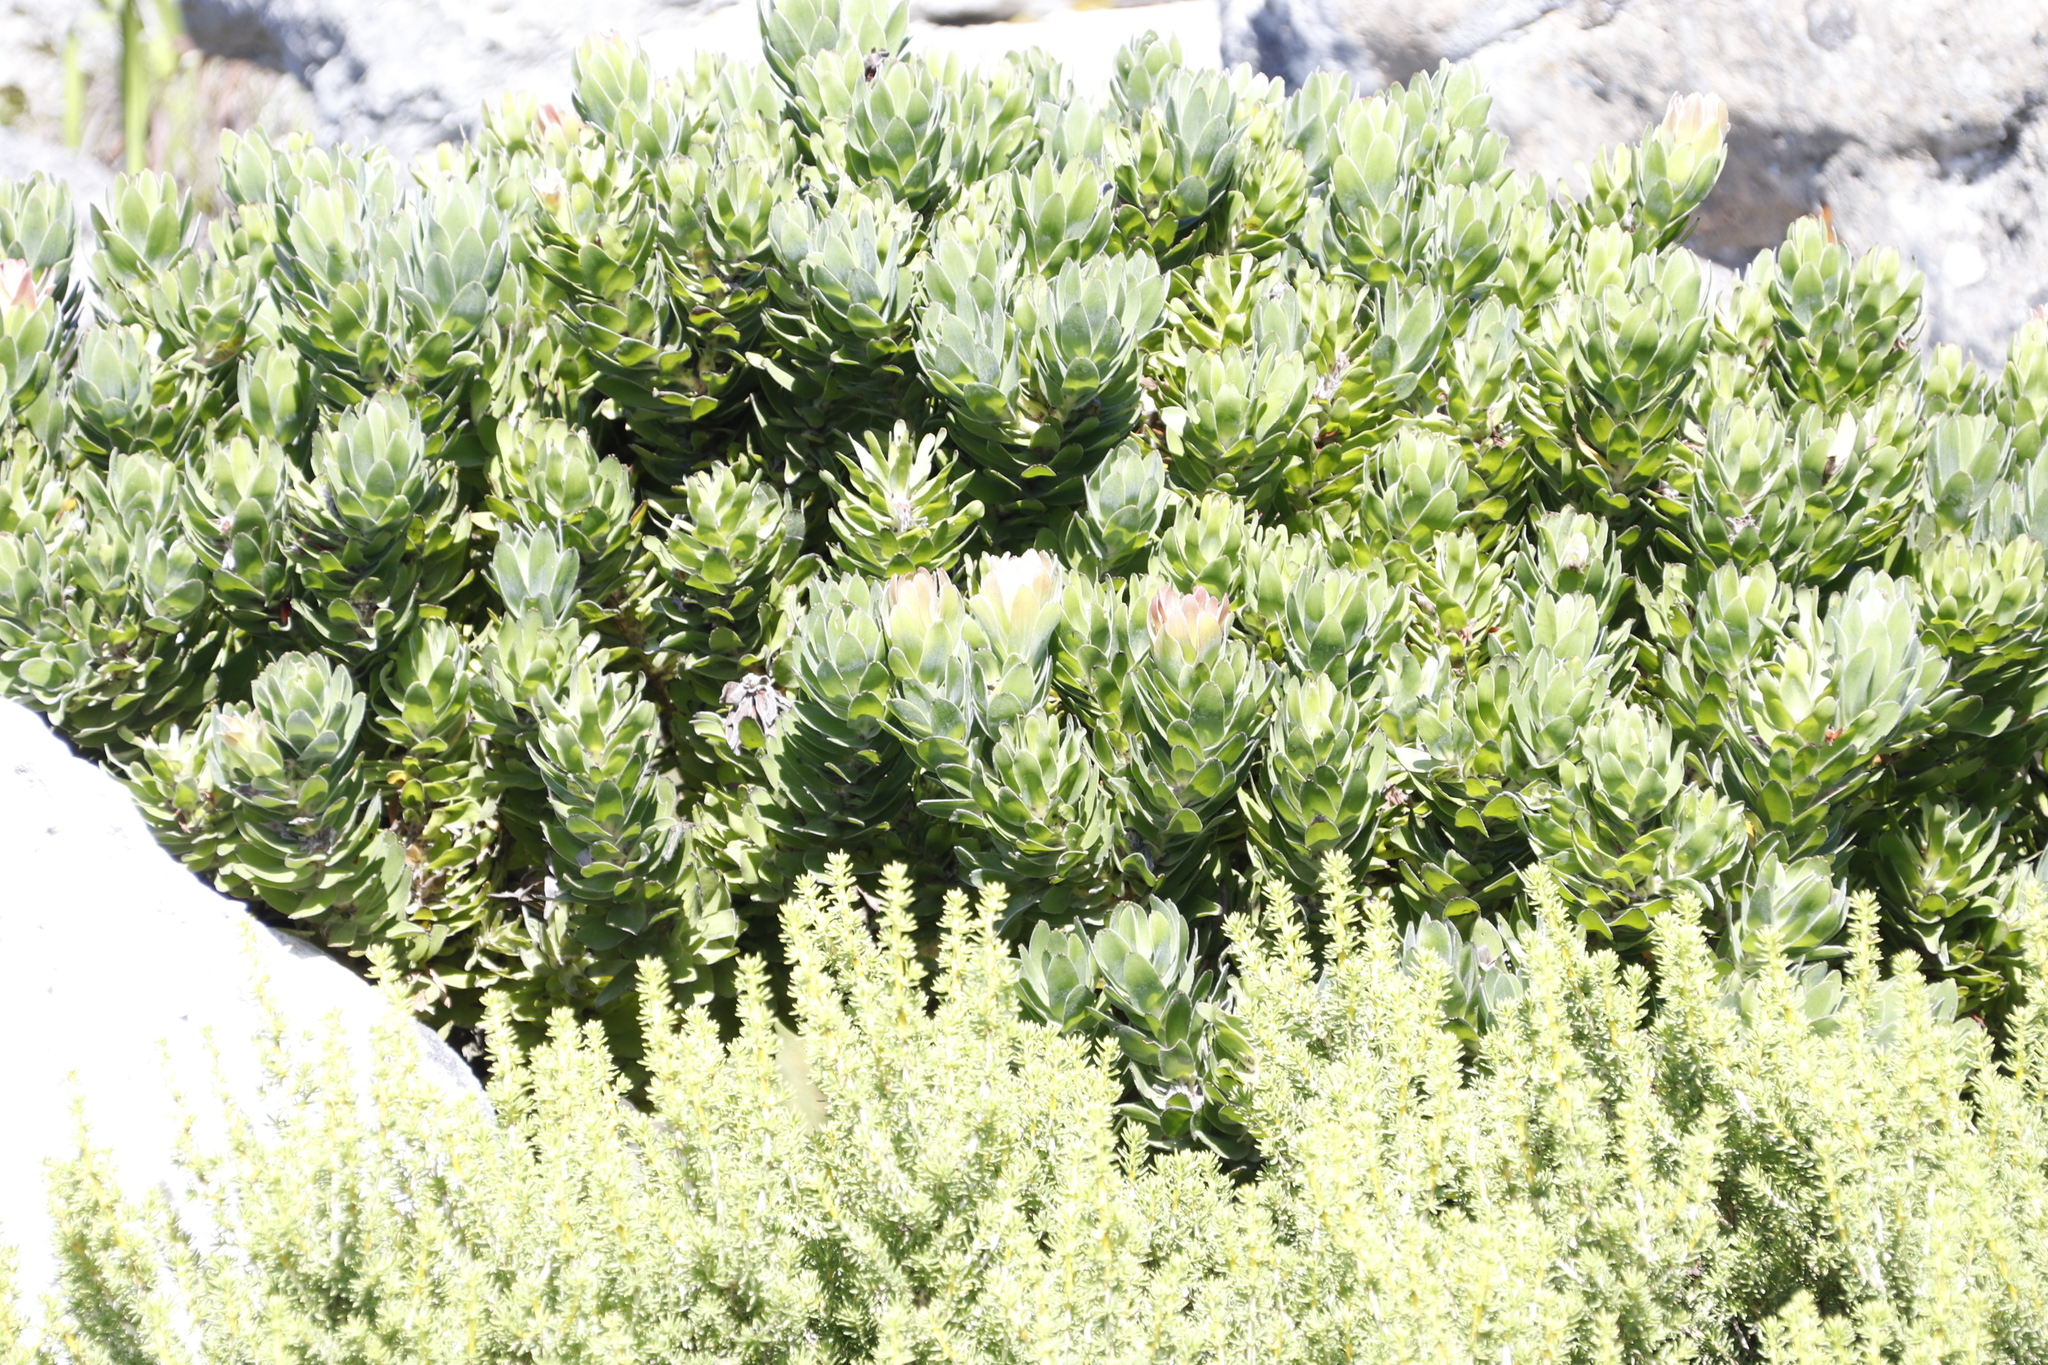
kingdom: Plantae
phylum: Tracheophyta
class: Magnoliopsida
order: Proteales
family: Proteaceae
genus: Mimetes
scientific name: Mimetes fimbriifolius
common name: Fringed bottlebrush
